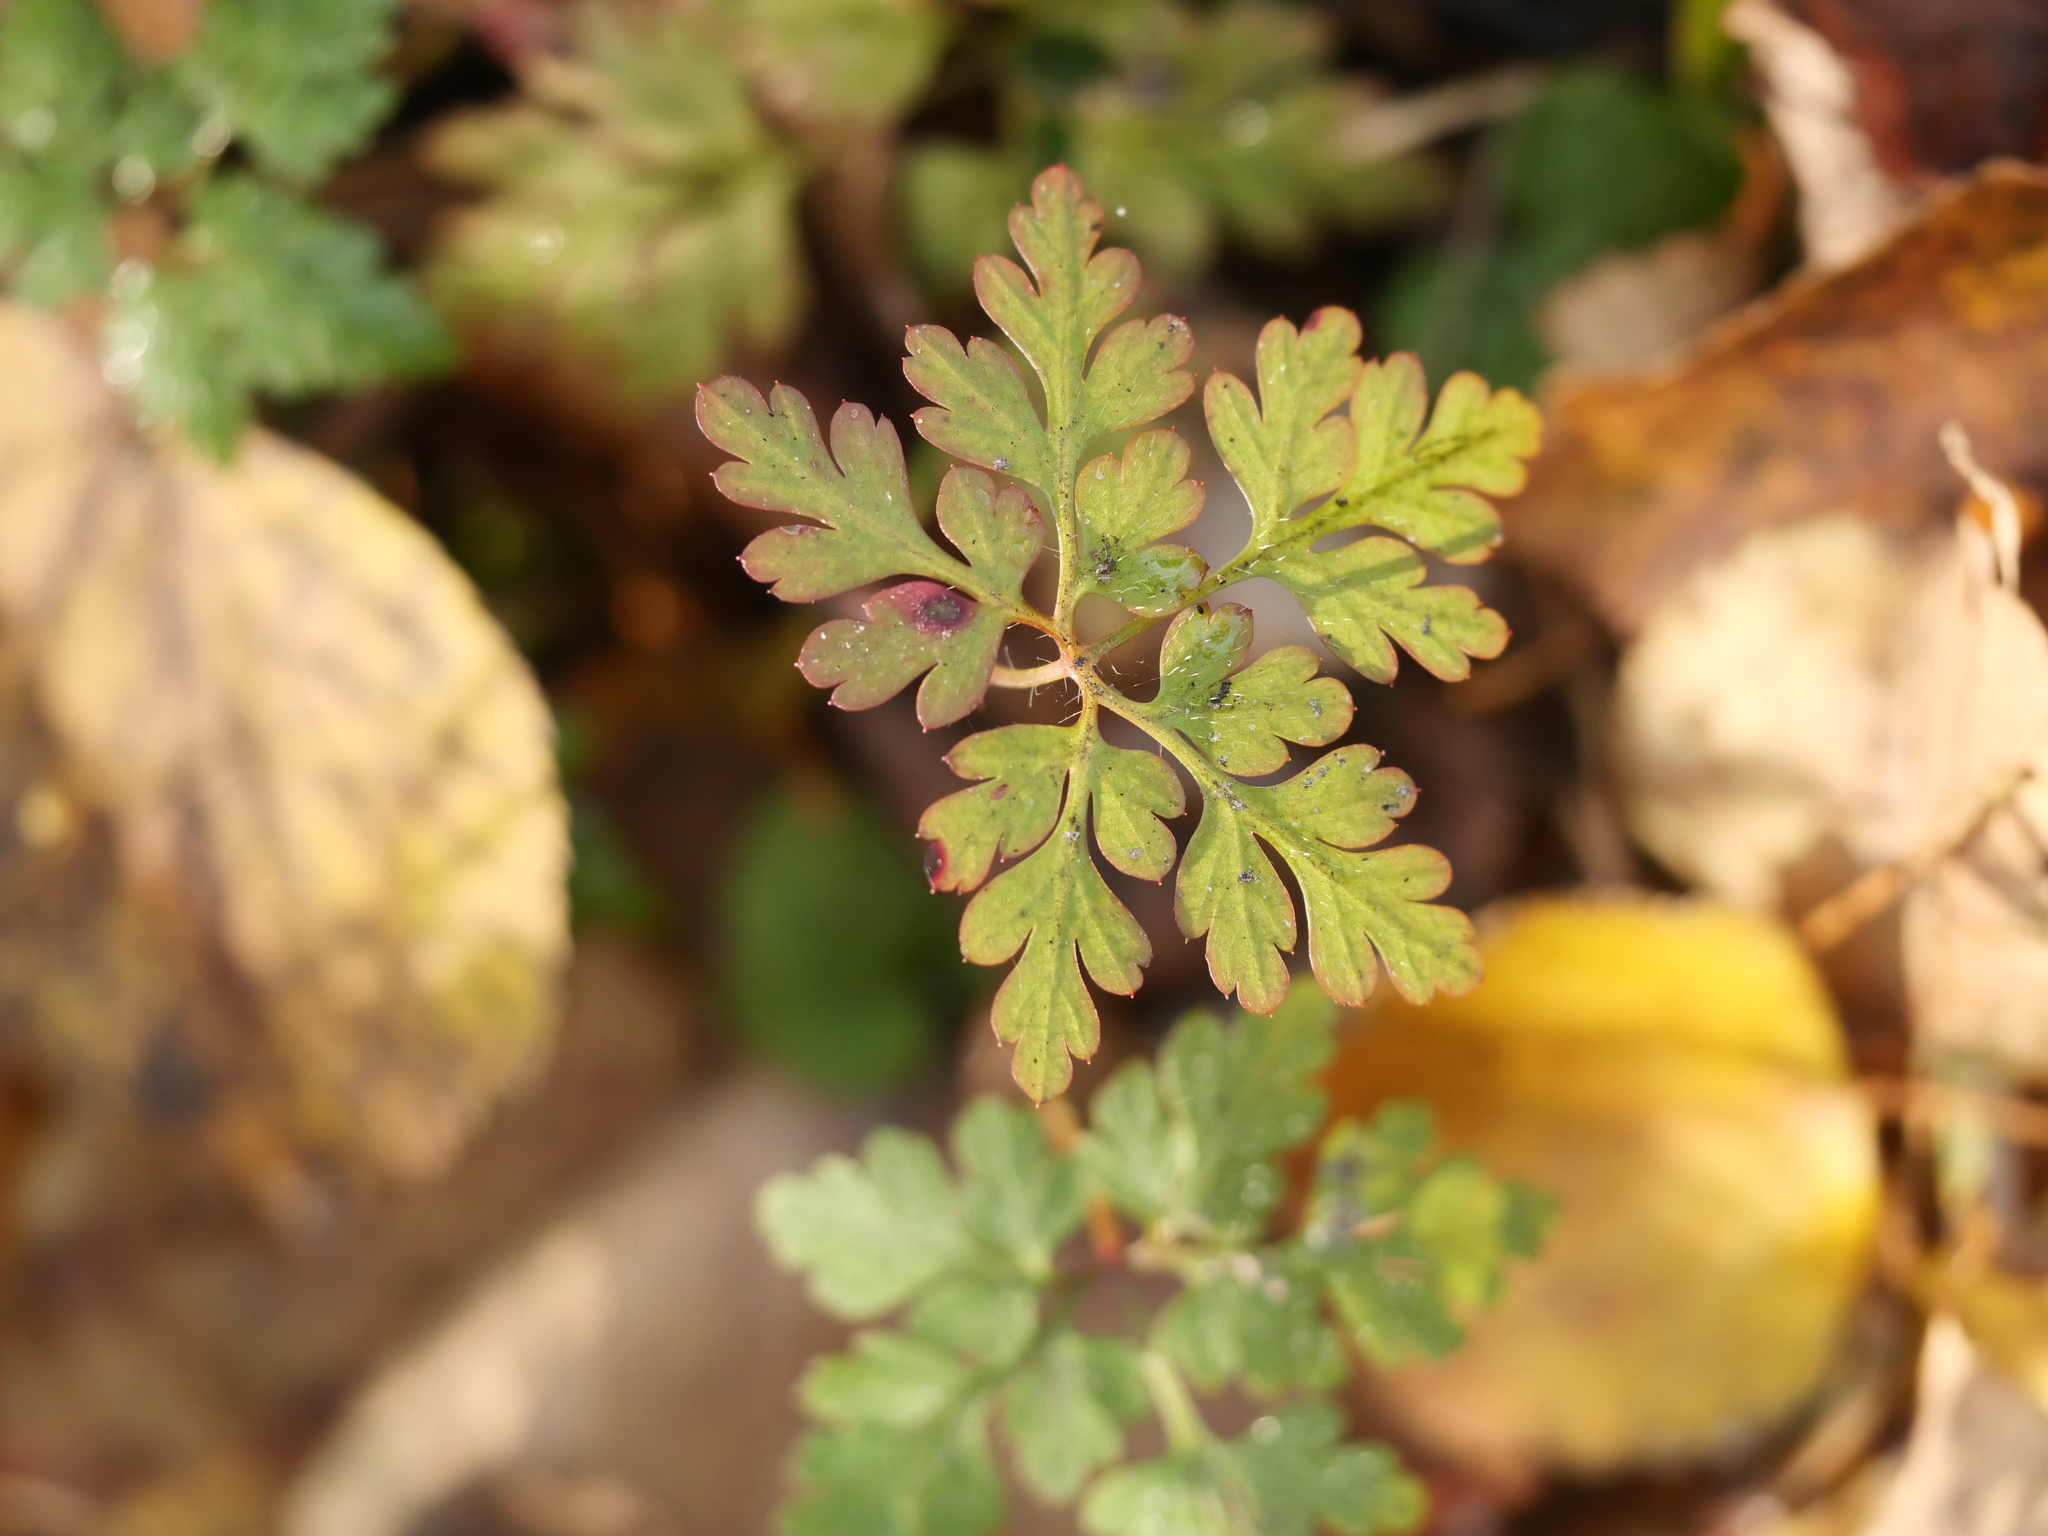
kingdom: Plantae
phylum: Tracheophyta
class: Magnoliopsida
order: Geraniales
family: Geraniaceae
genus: Geranium
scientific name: Geranium robertianum
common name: Herb-robert
